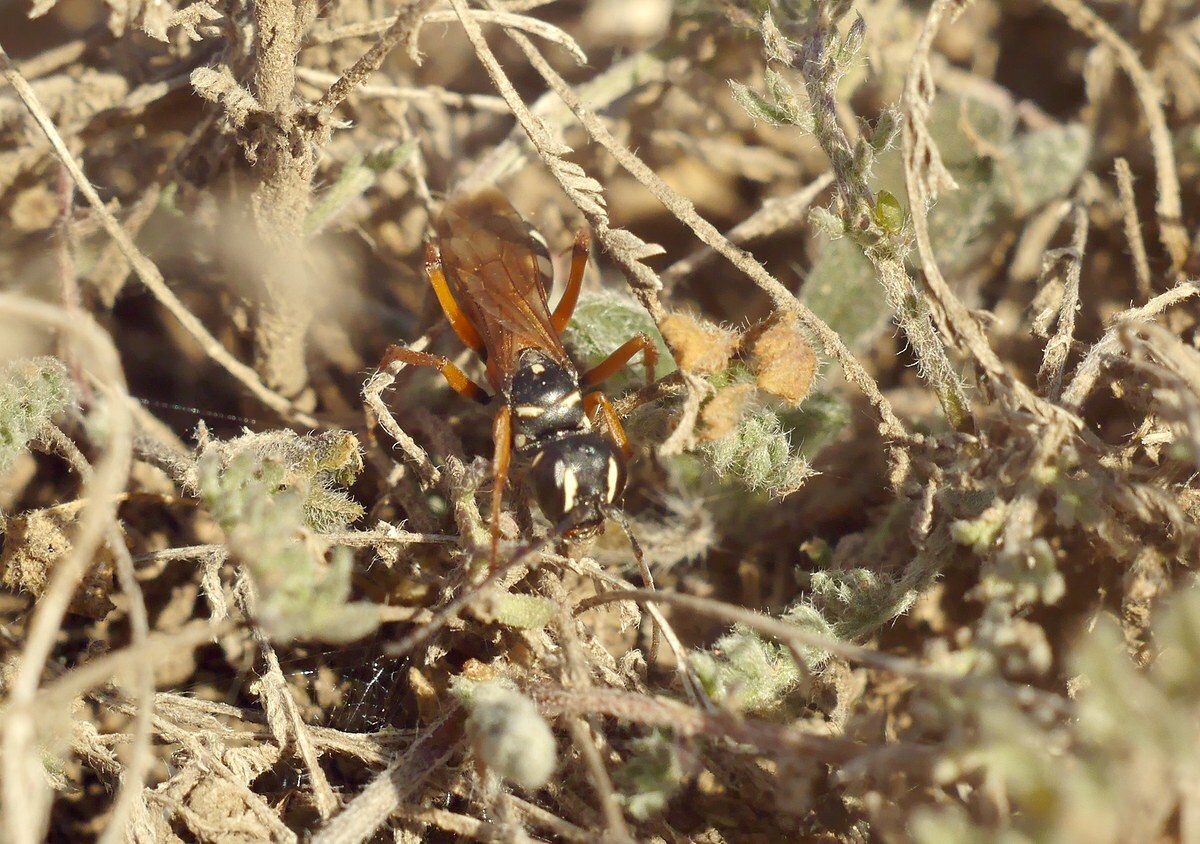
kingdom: Animalia
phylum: Arthropoda
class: Insecta
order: Hymenoptera
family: Pompilidae
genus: Cryptocheilus
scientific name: Cryptocheilus fabricii
